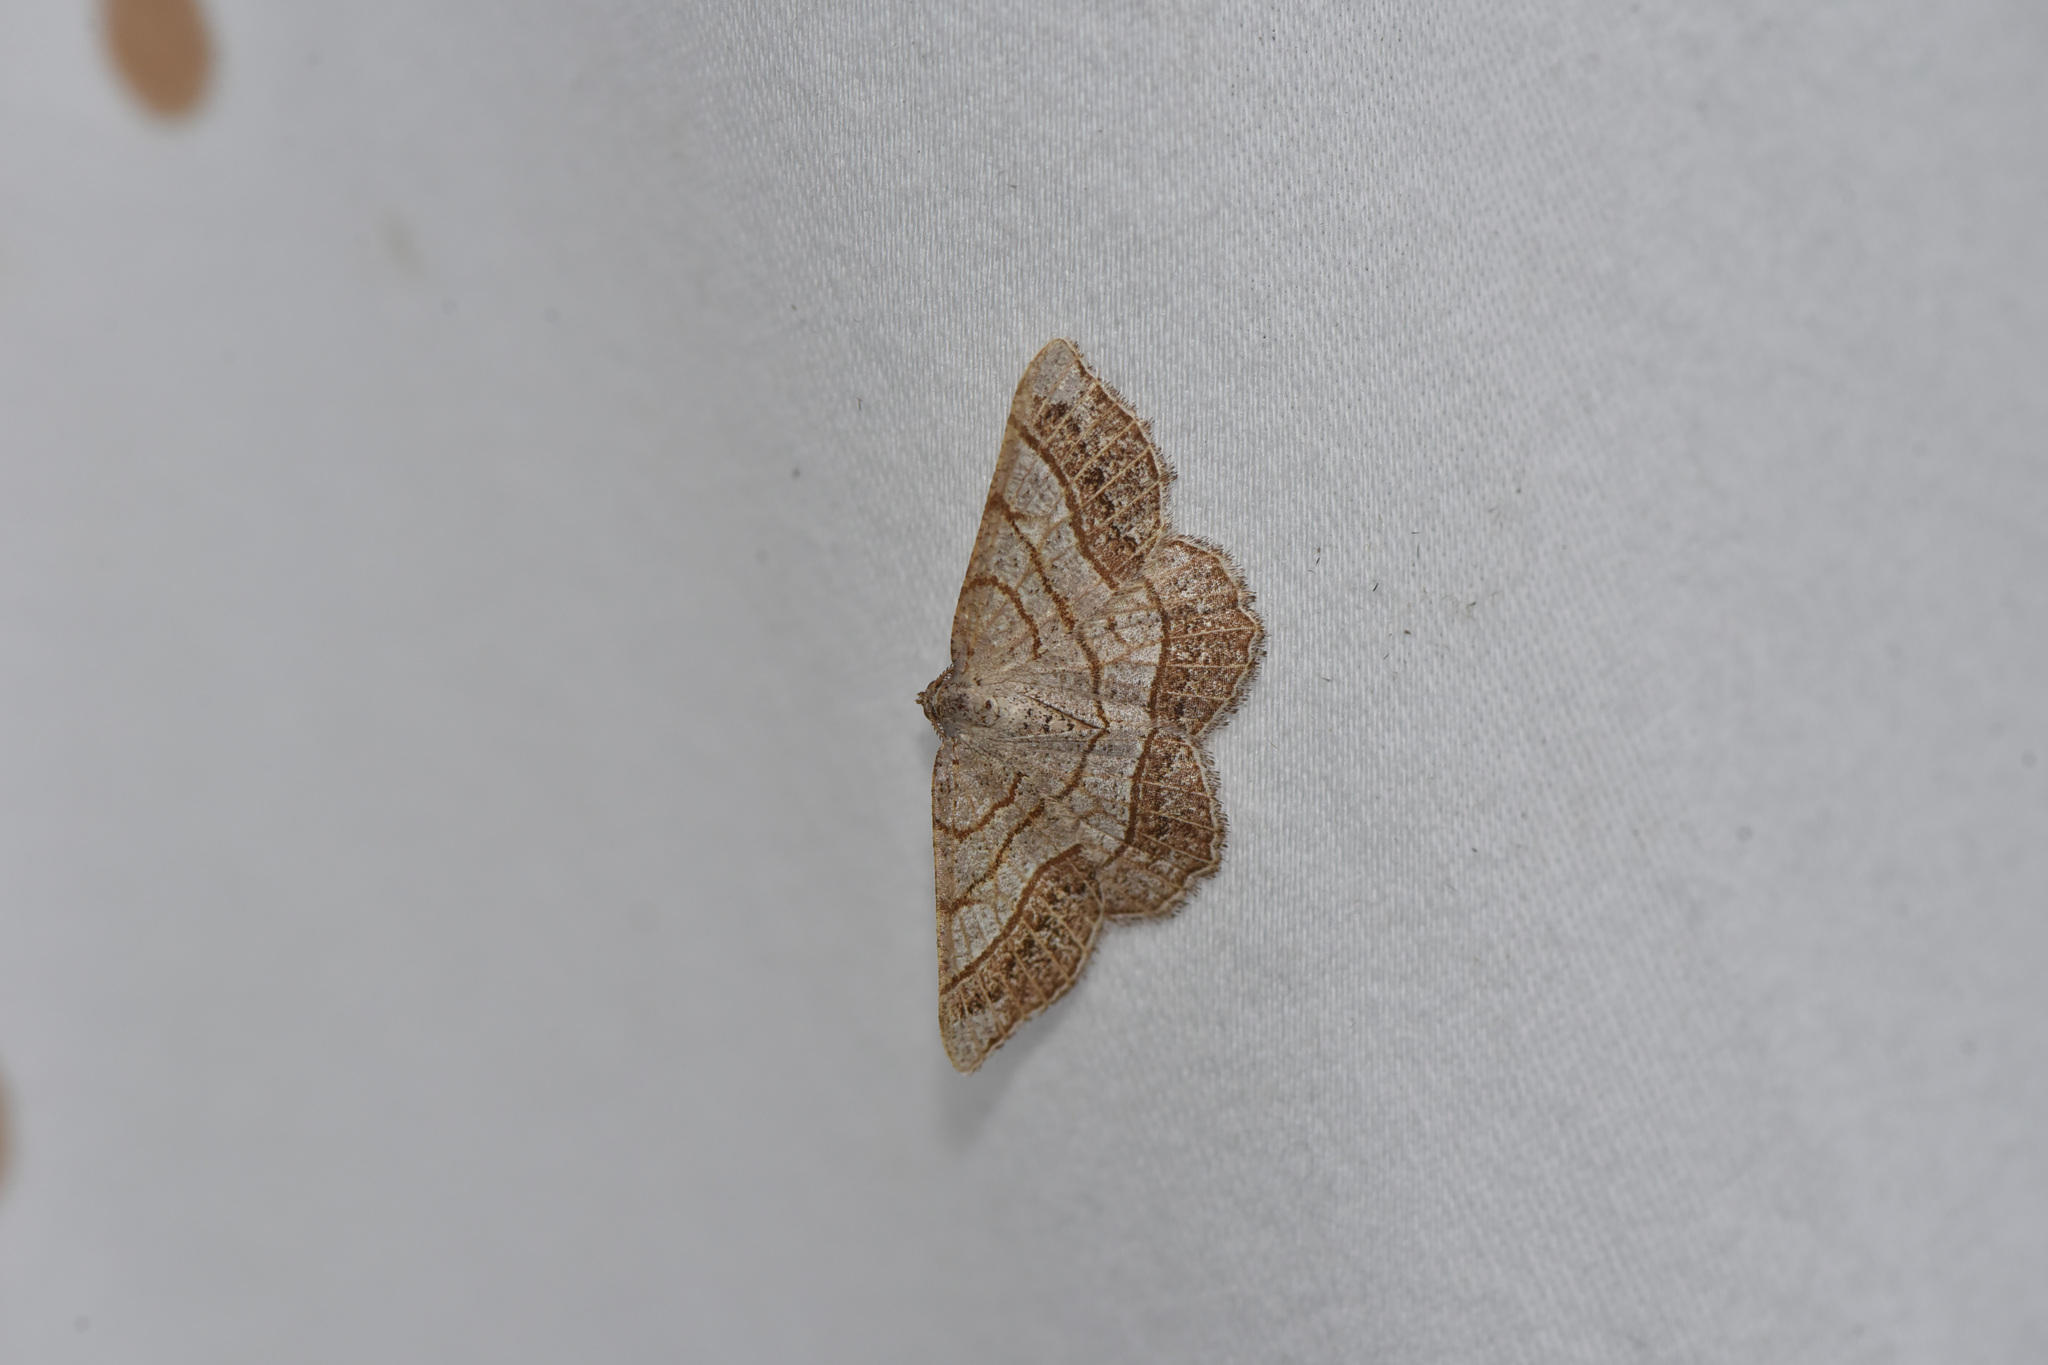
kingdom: Animalia
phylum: Arthropoda
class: Insecta
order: Lepidoptera
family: Geometridae
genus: Eumacaria
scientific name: Eumacaria madopata
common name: Brown-bordered geometer
